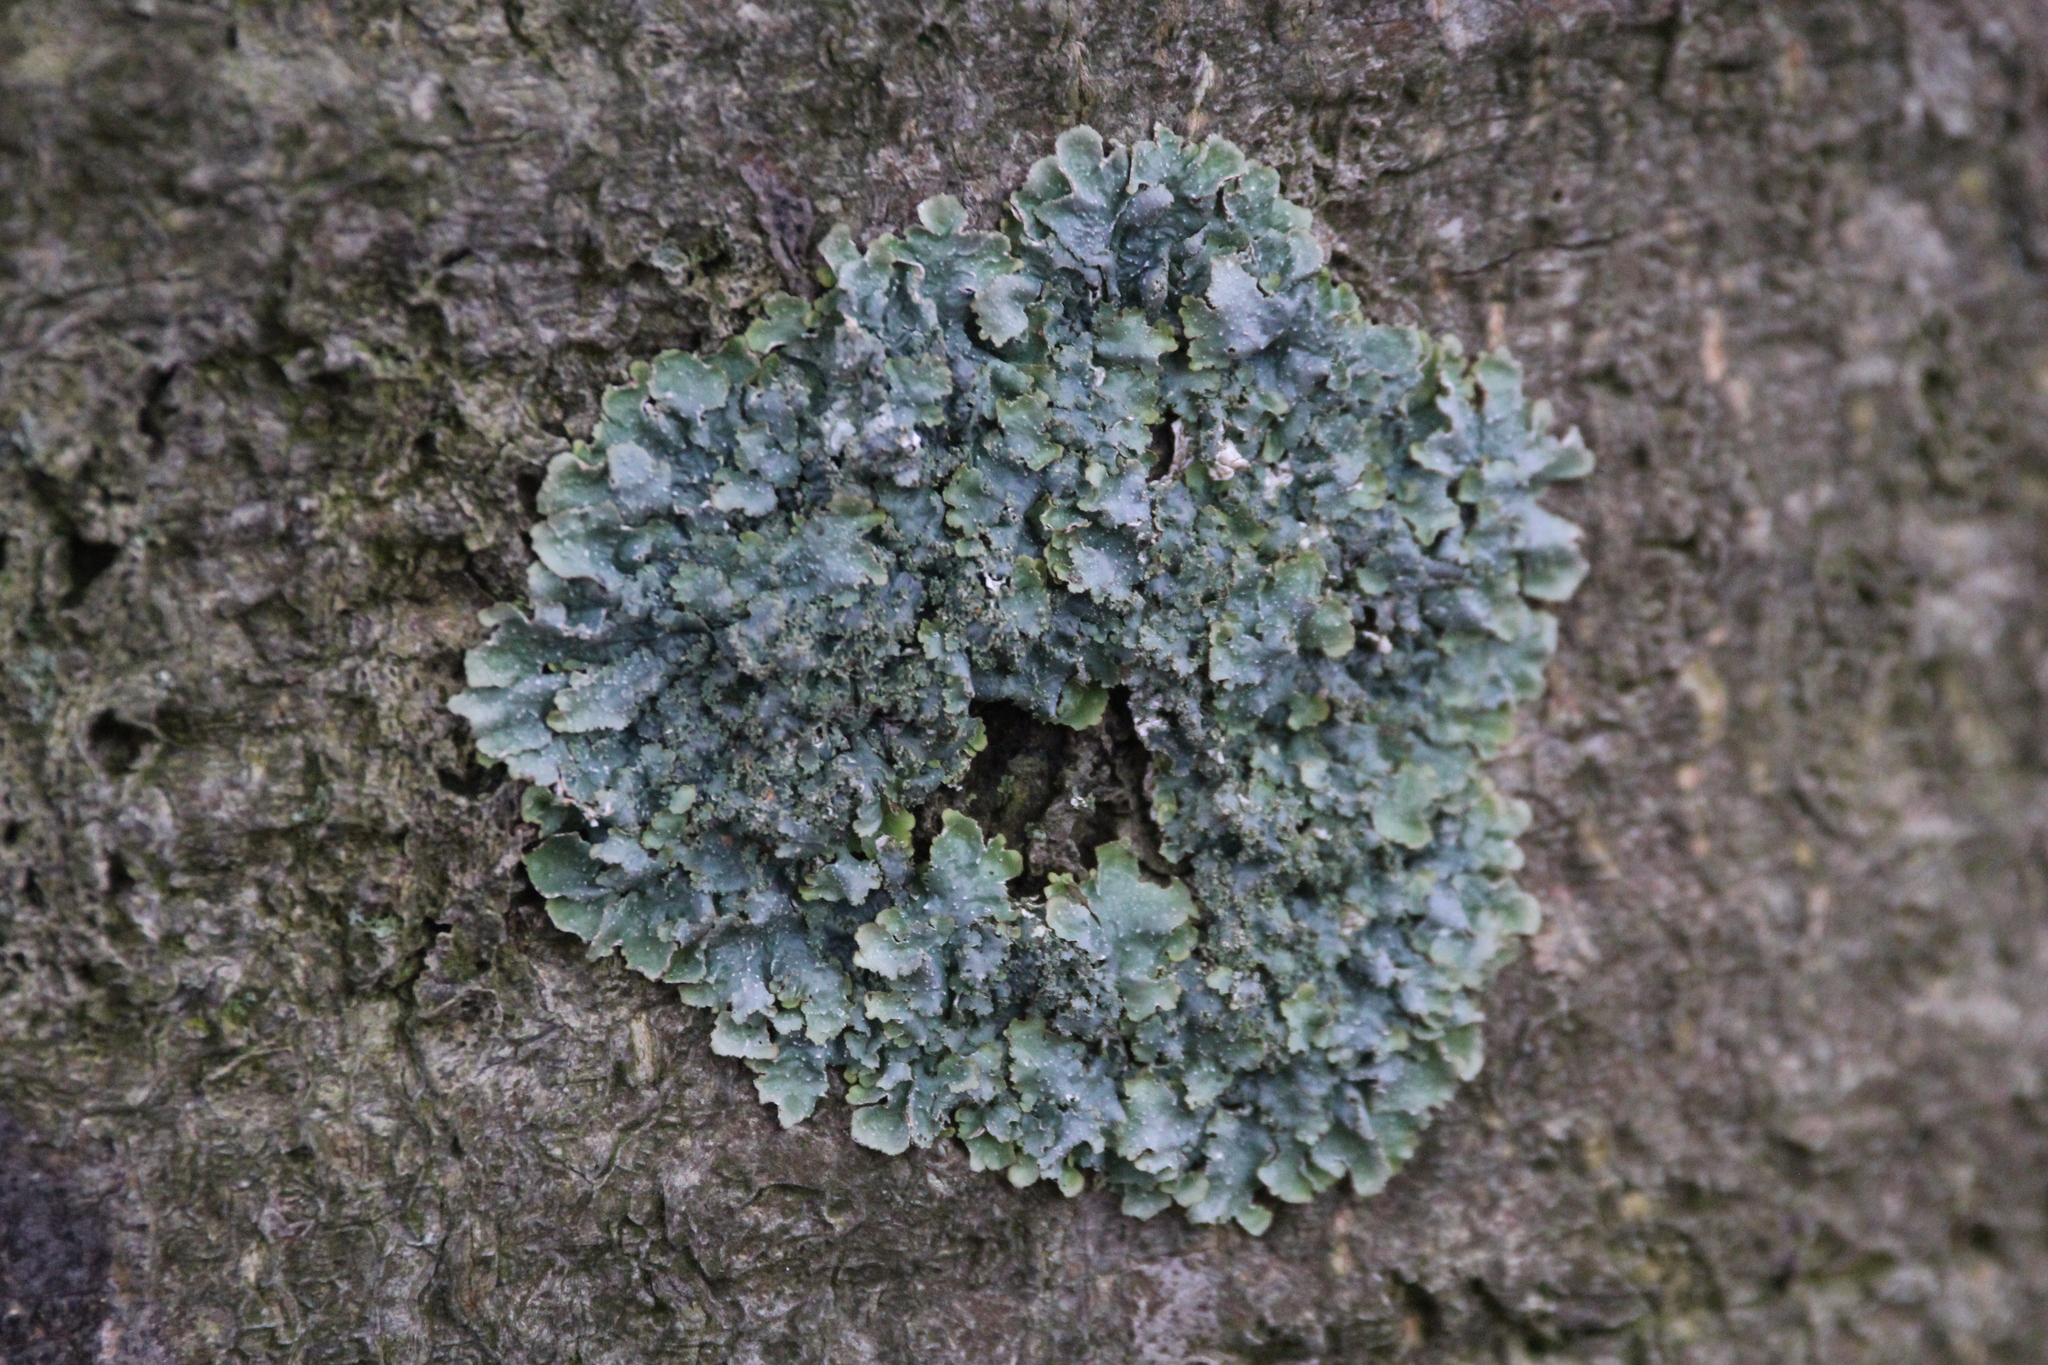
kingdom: Fungi
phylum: Ascomycota
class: Lecanoromycetes
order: Lecanorales
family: Parmeliaceae
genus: Punctelia
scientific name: Punctelia rudecta
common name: Rough speckled shield lichen
